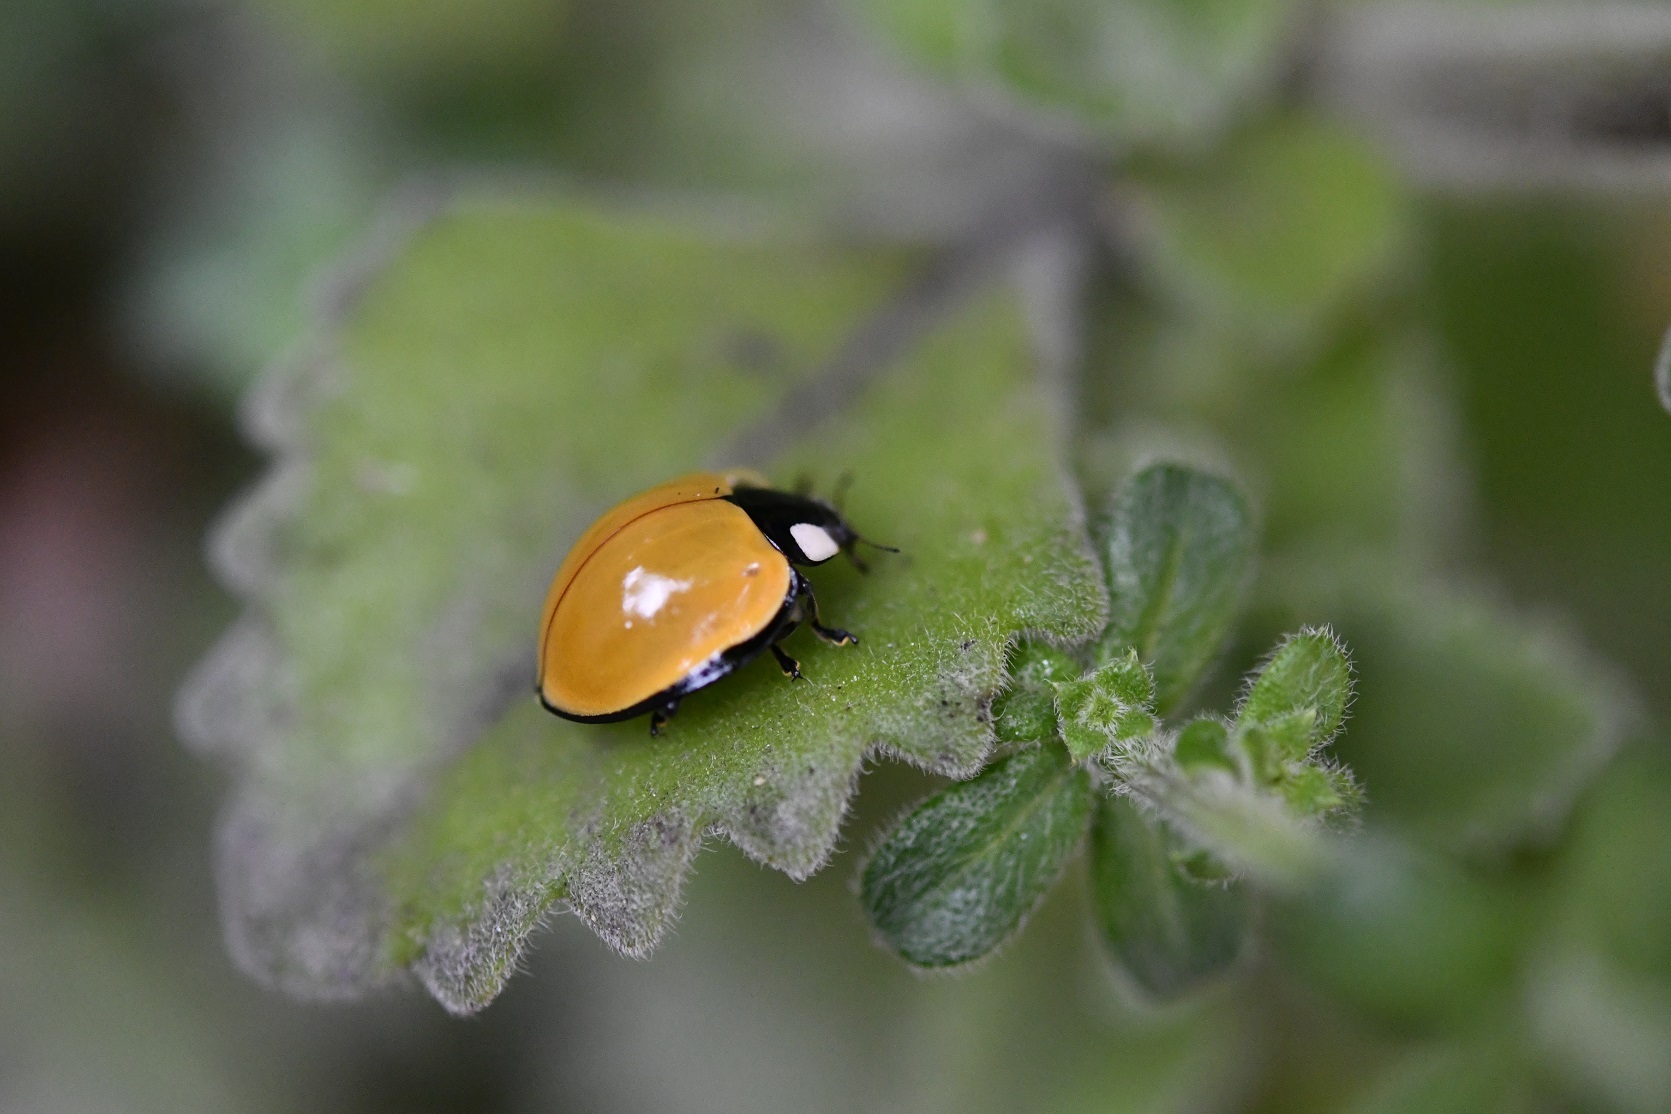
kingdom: Animalia
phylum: Arthropoda
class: Insecta
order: Coleoptera
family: Coccinellidae
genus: Anatis
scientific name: Anatis
